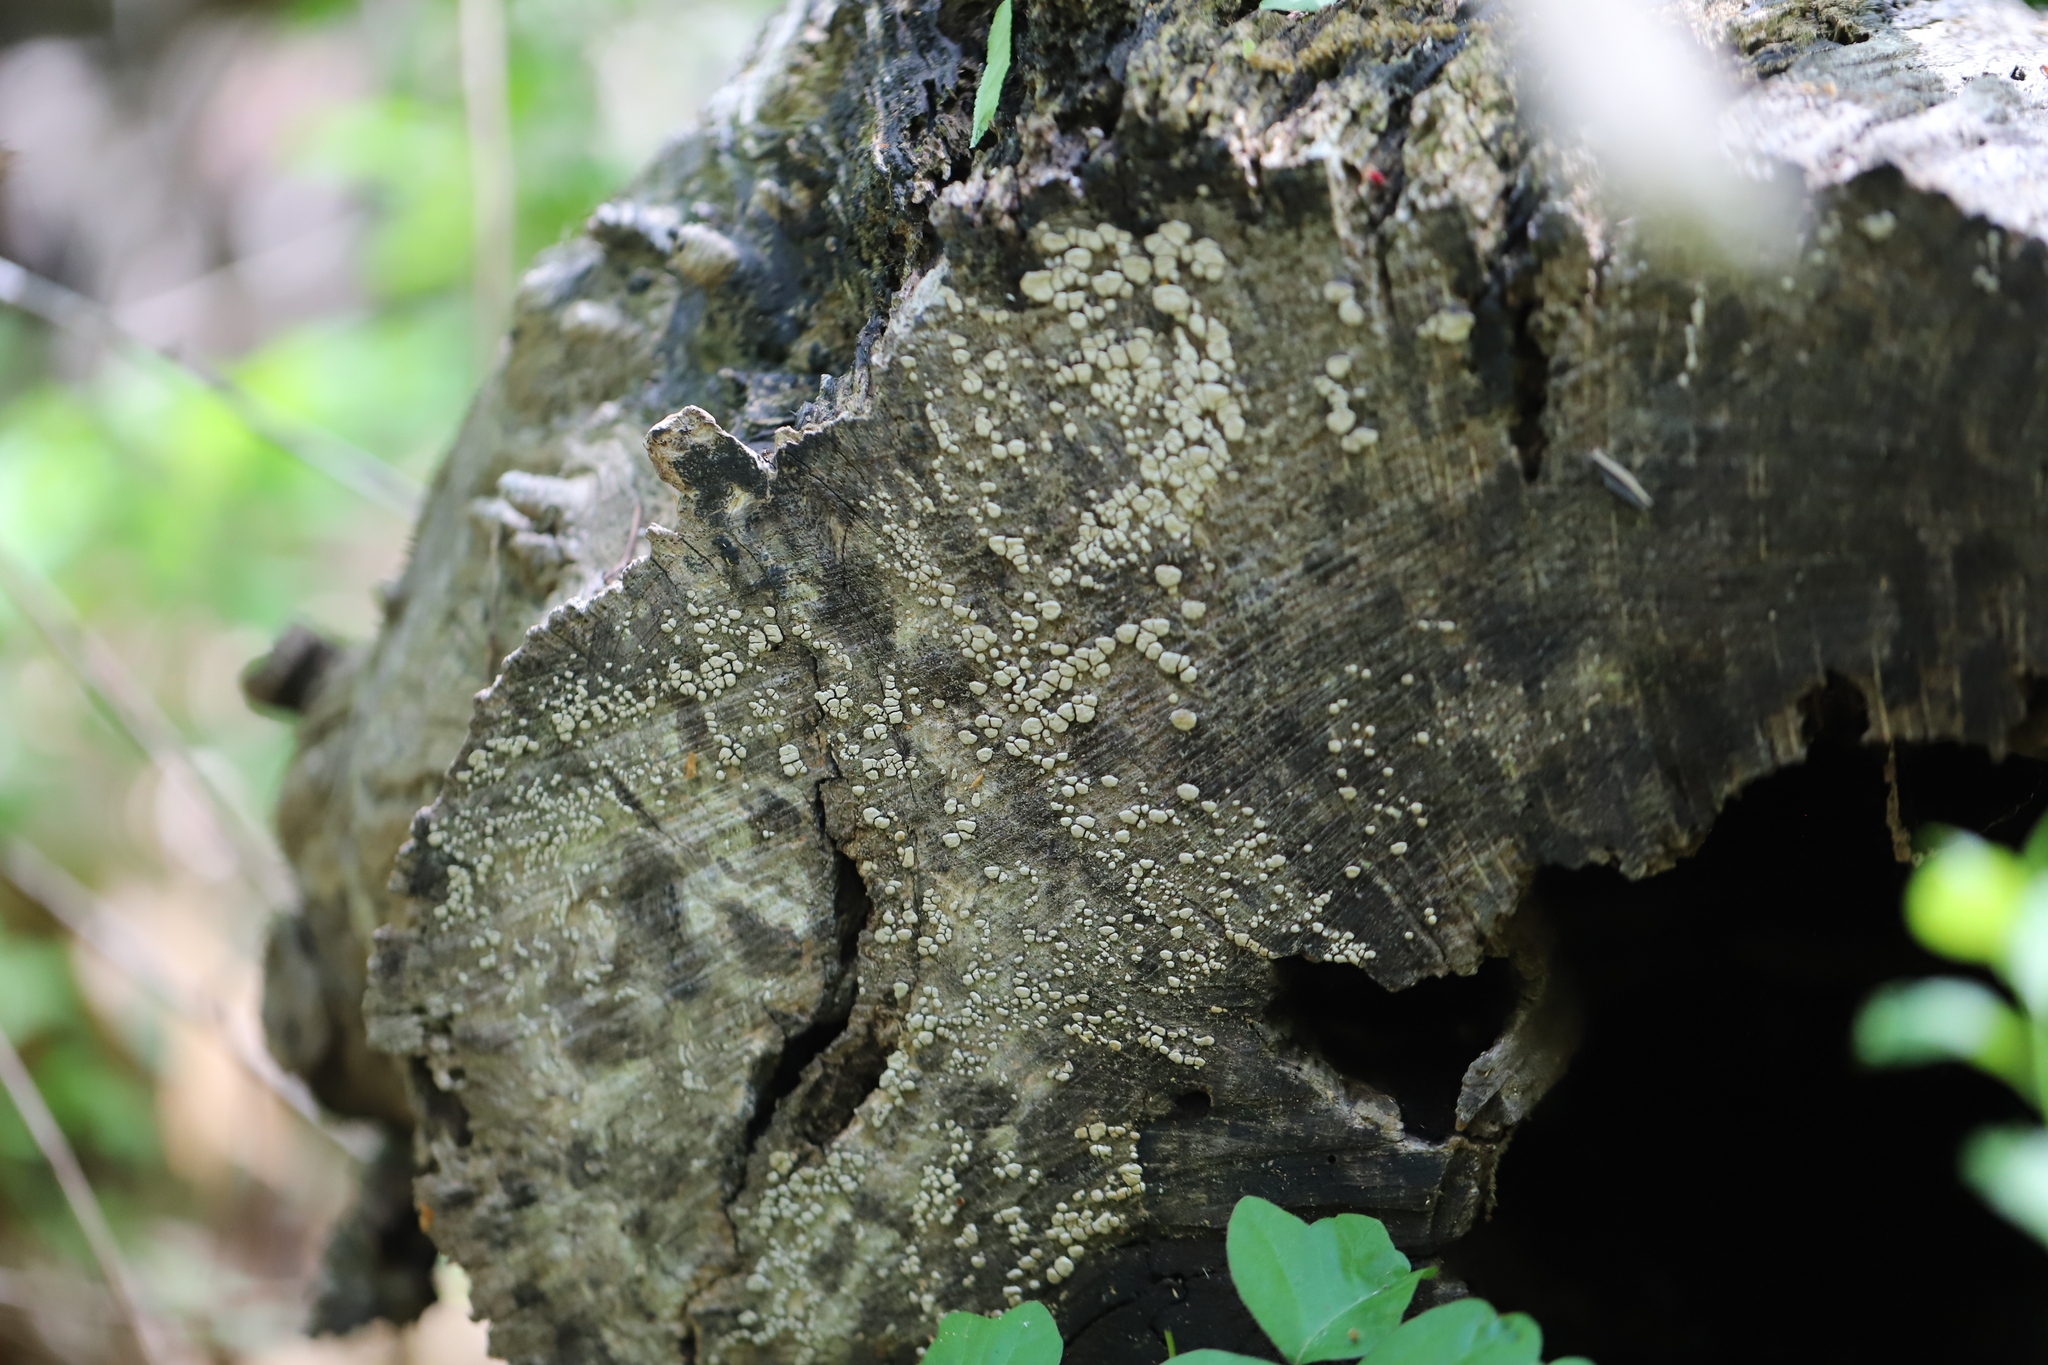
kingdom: Fungi
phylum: Basidiomycota
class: Agaricomycetes
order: Russulales
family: Stereaceae
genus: Xylobolus
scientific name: Xylobolus frustulatus
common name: Ceramic parchment
